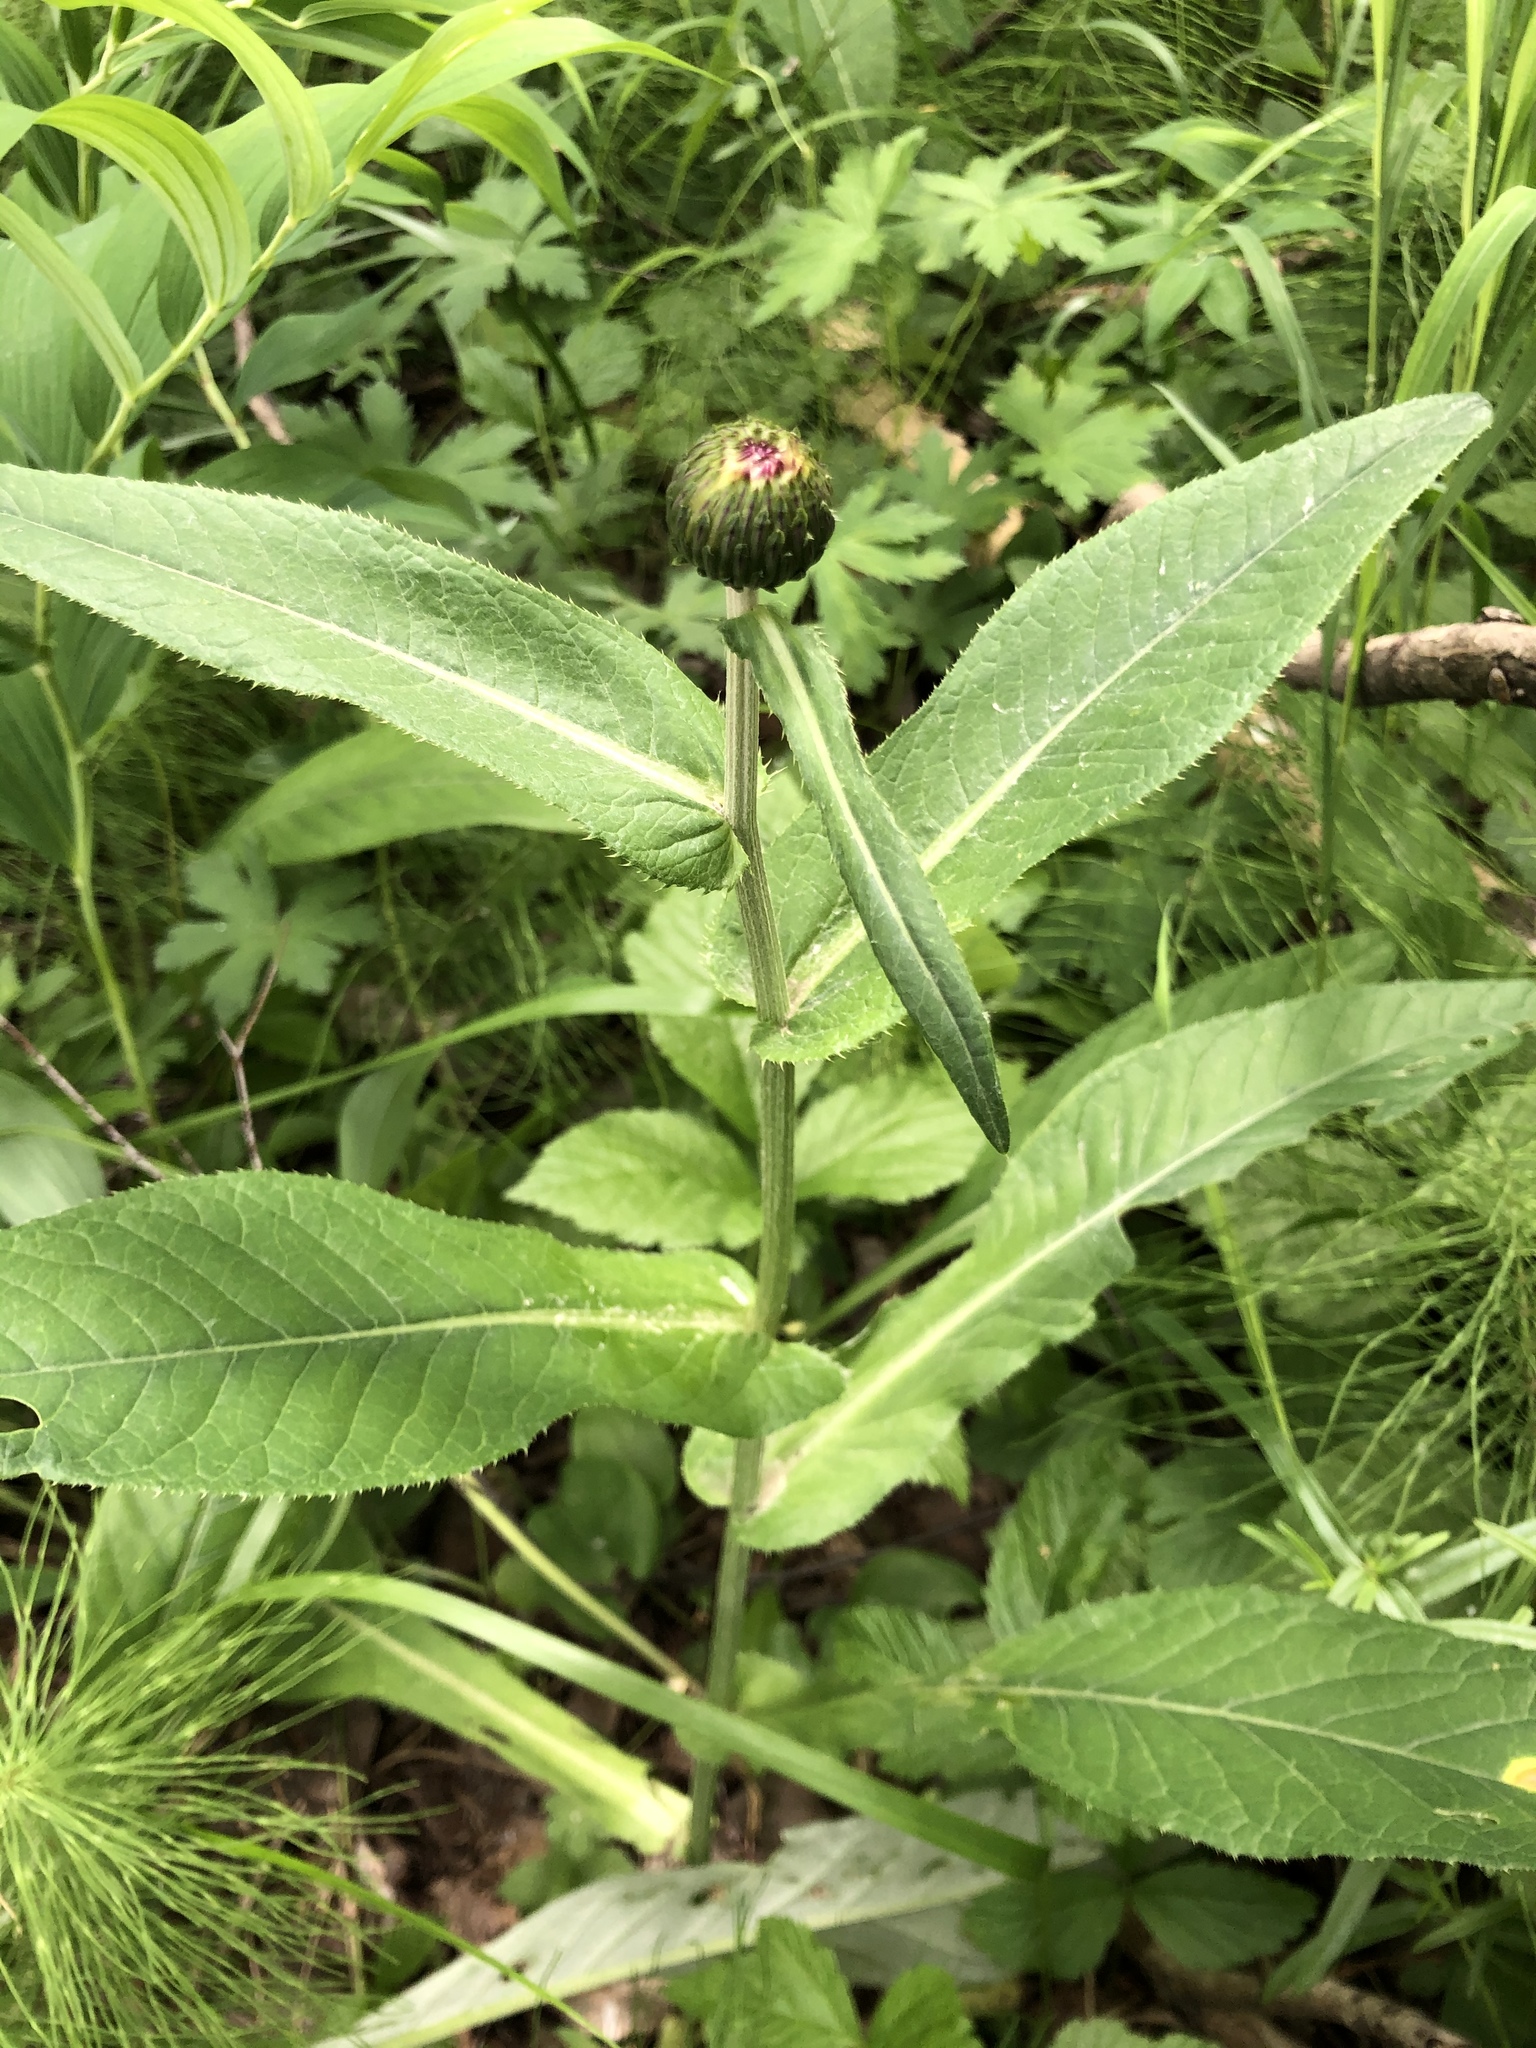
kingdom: Plantae
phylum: Tracheophyta
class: Magnoliopsida
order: Asterales
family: Asteraceae
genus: Cirsium
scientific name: Cirsium heterophyllum
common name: Melancholy thistle
